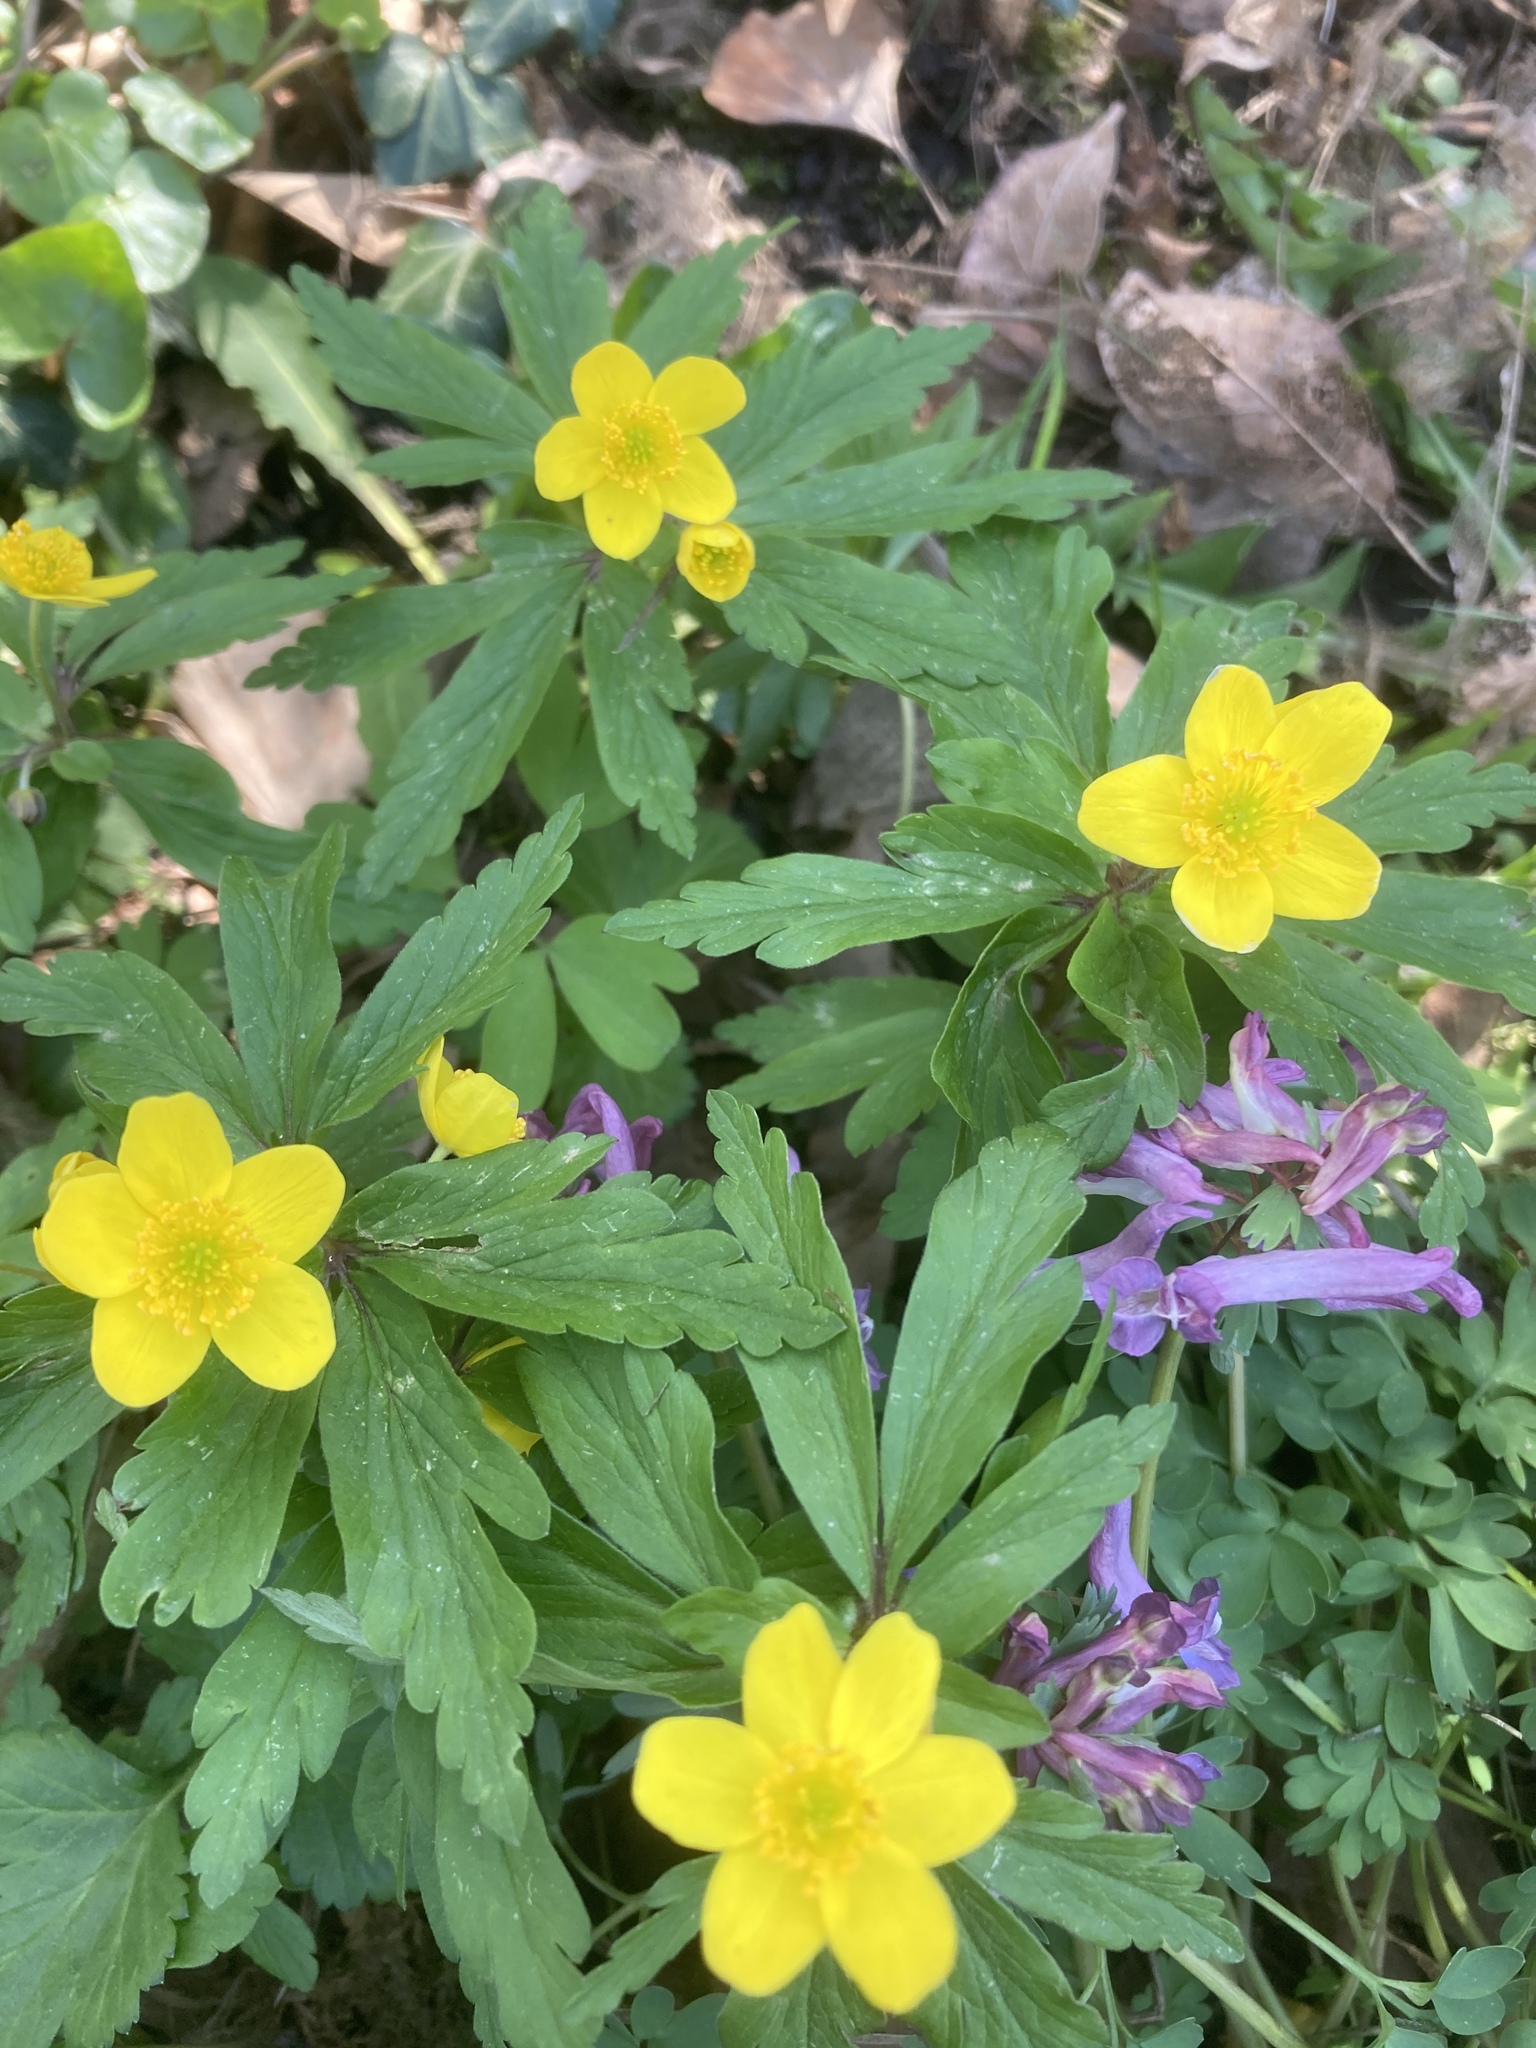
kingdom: Plantae
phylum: Tracheophyta
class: Magnoliopsida
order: Ranunculales
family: Ranunculaceae
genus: Anemone
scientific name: Anemone ranunculoides
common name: Yellow anemone
